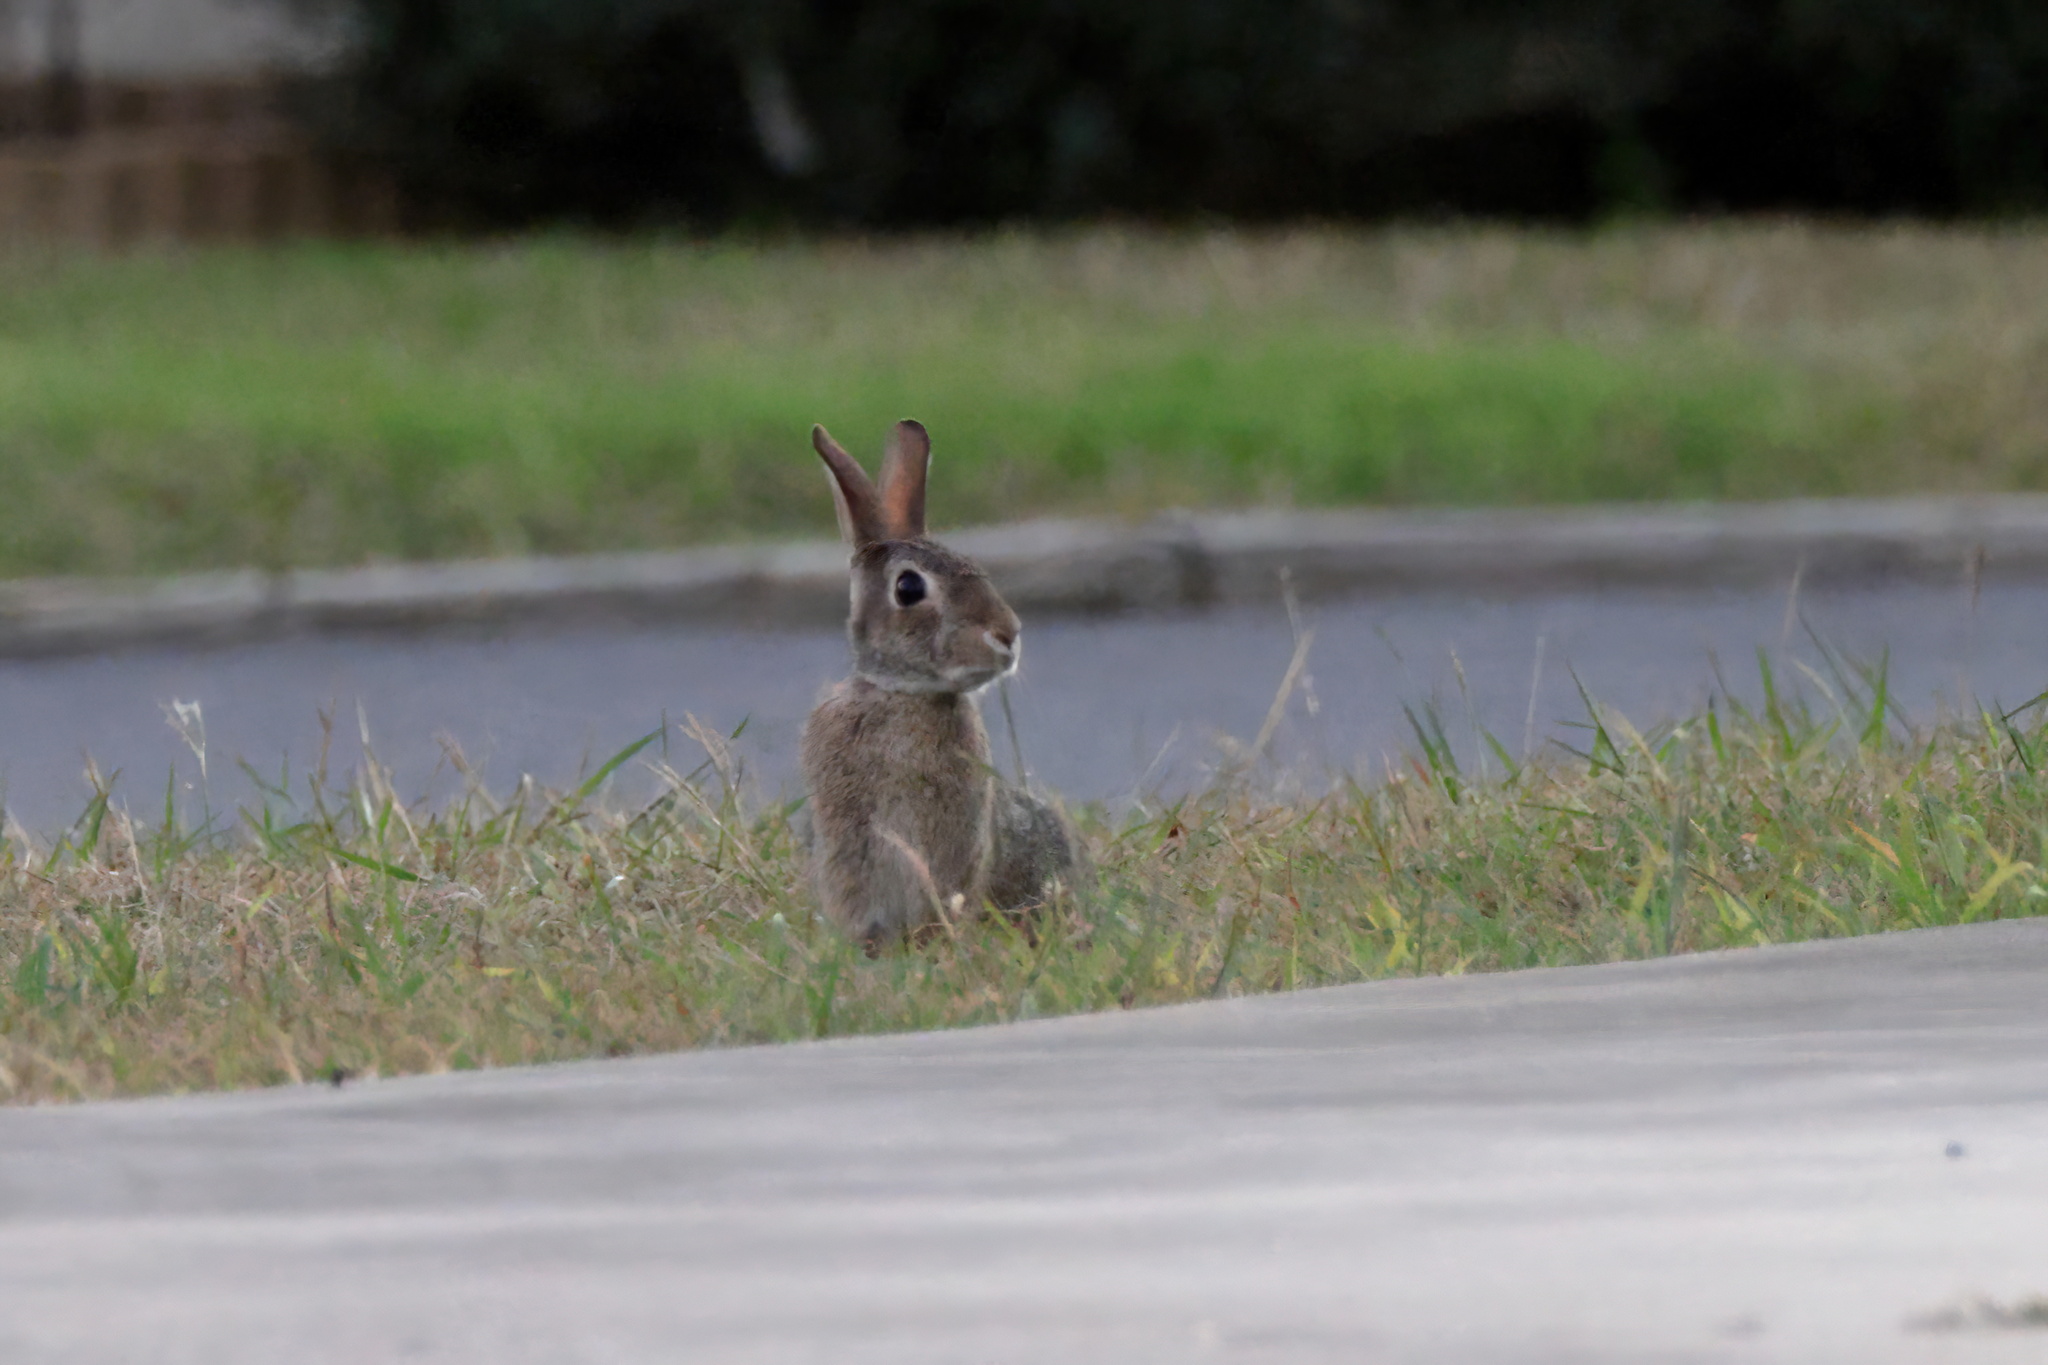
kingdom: Animalia
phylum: Chordata
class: Mammalia
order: Lagomorpha
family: Leporidae
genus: Sylvilagus
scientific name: Sylvilagus floridanus
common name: Eastern cottontail
